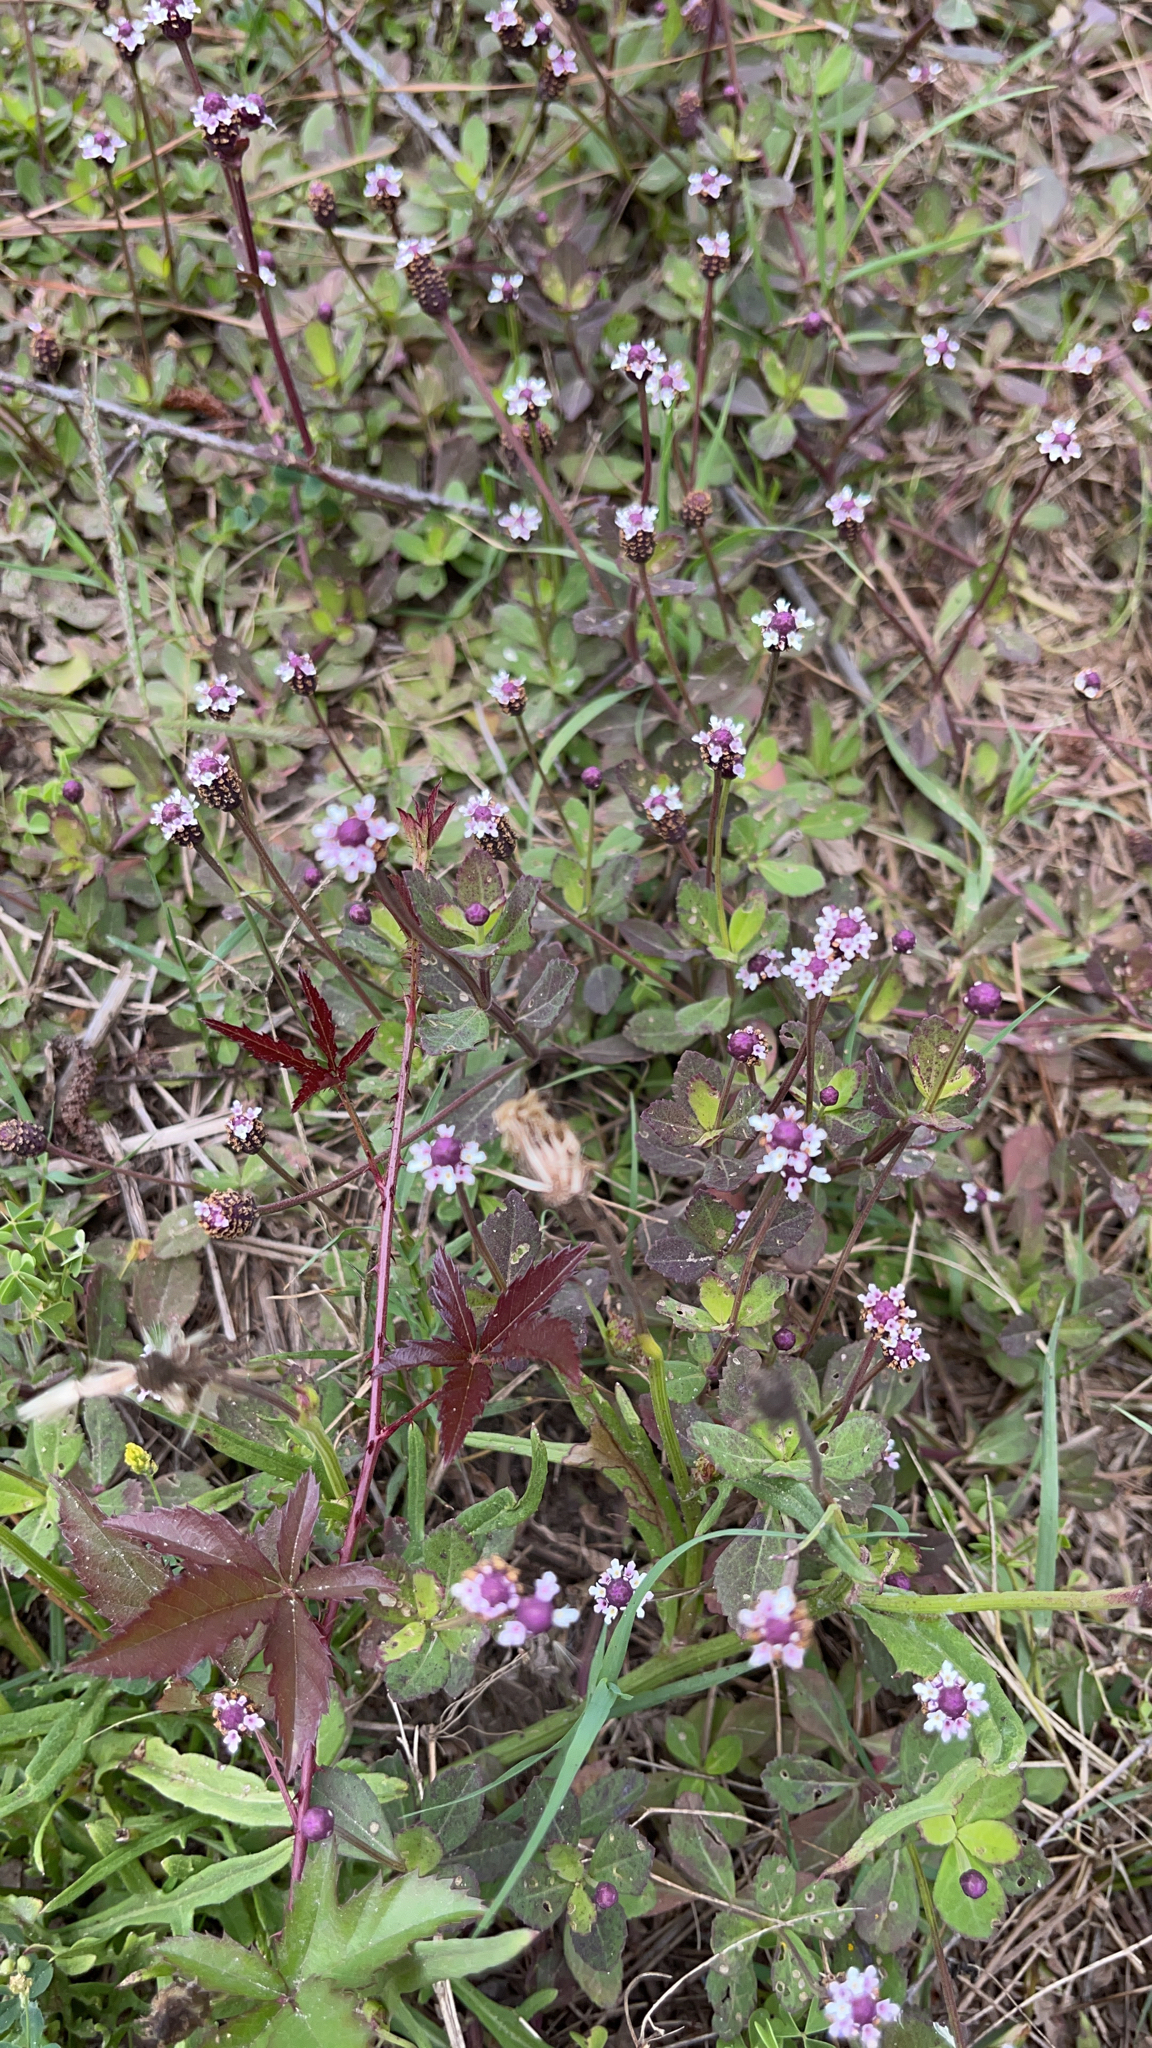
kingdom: Plantae
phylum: Tracheophyta
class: Magnoliopsida
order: Lamiales
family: Verbenaceae
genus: Phyla
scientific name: Phyla nodiflora
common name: Frogfruit
